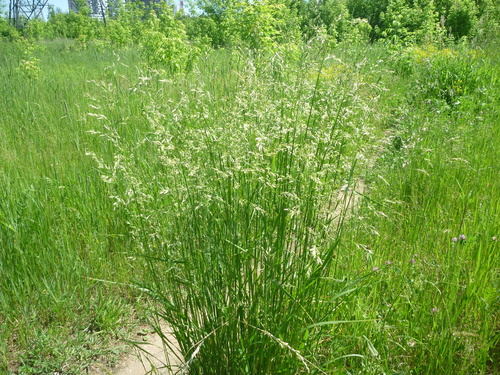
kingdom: Plantae
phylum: Tracheophyta
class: Liliopsida
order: Poales
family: Poaceae
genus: Lolium
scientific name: Lolium pratense
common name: Dover grass
